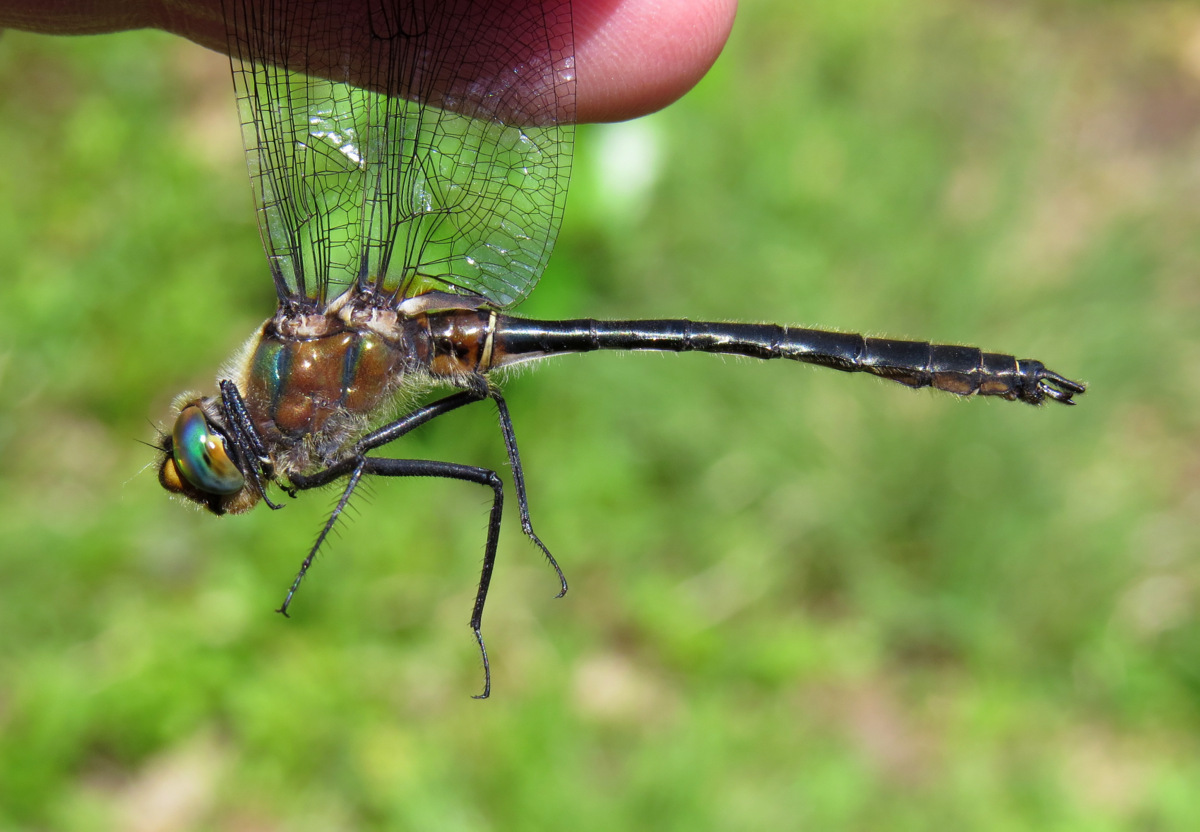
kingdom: Animalia
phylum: Arthropoda
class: Insecta
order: Odonata
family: Corduliidae
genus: Cordulia
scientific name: Cordulia shurtleffii
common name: American emerald
